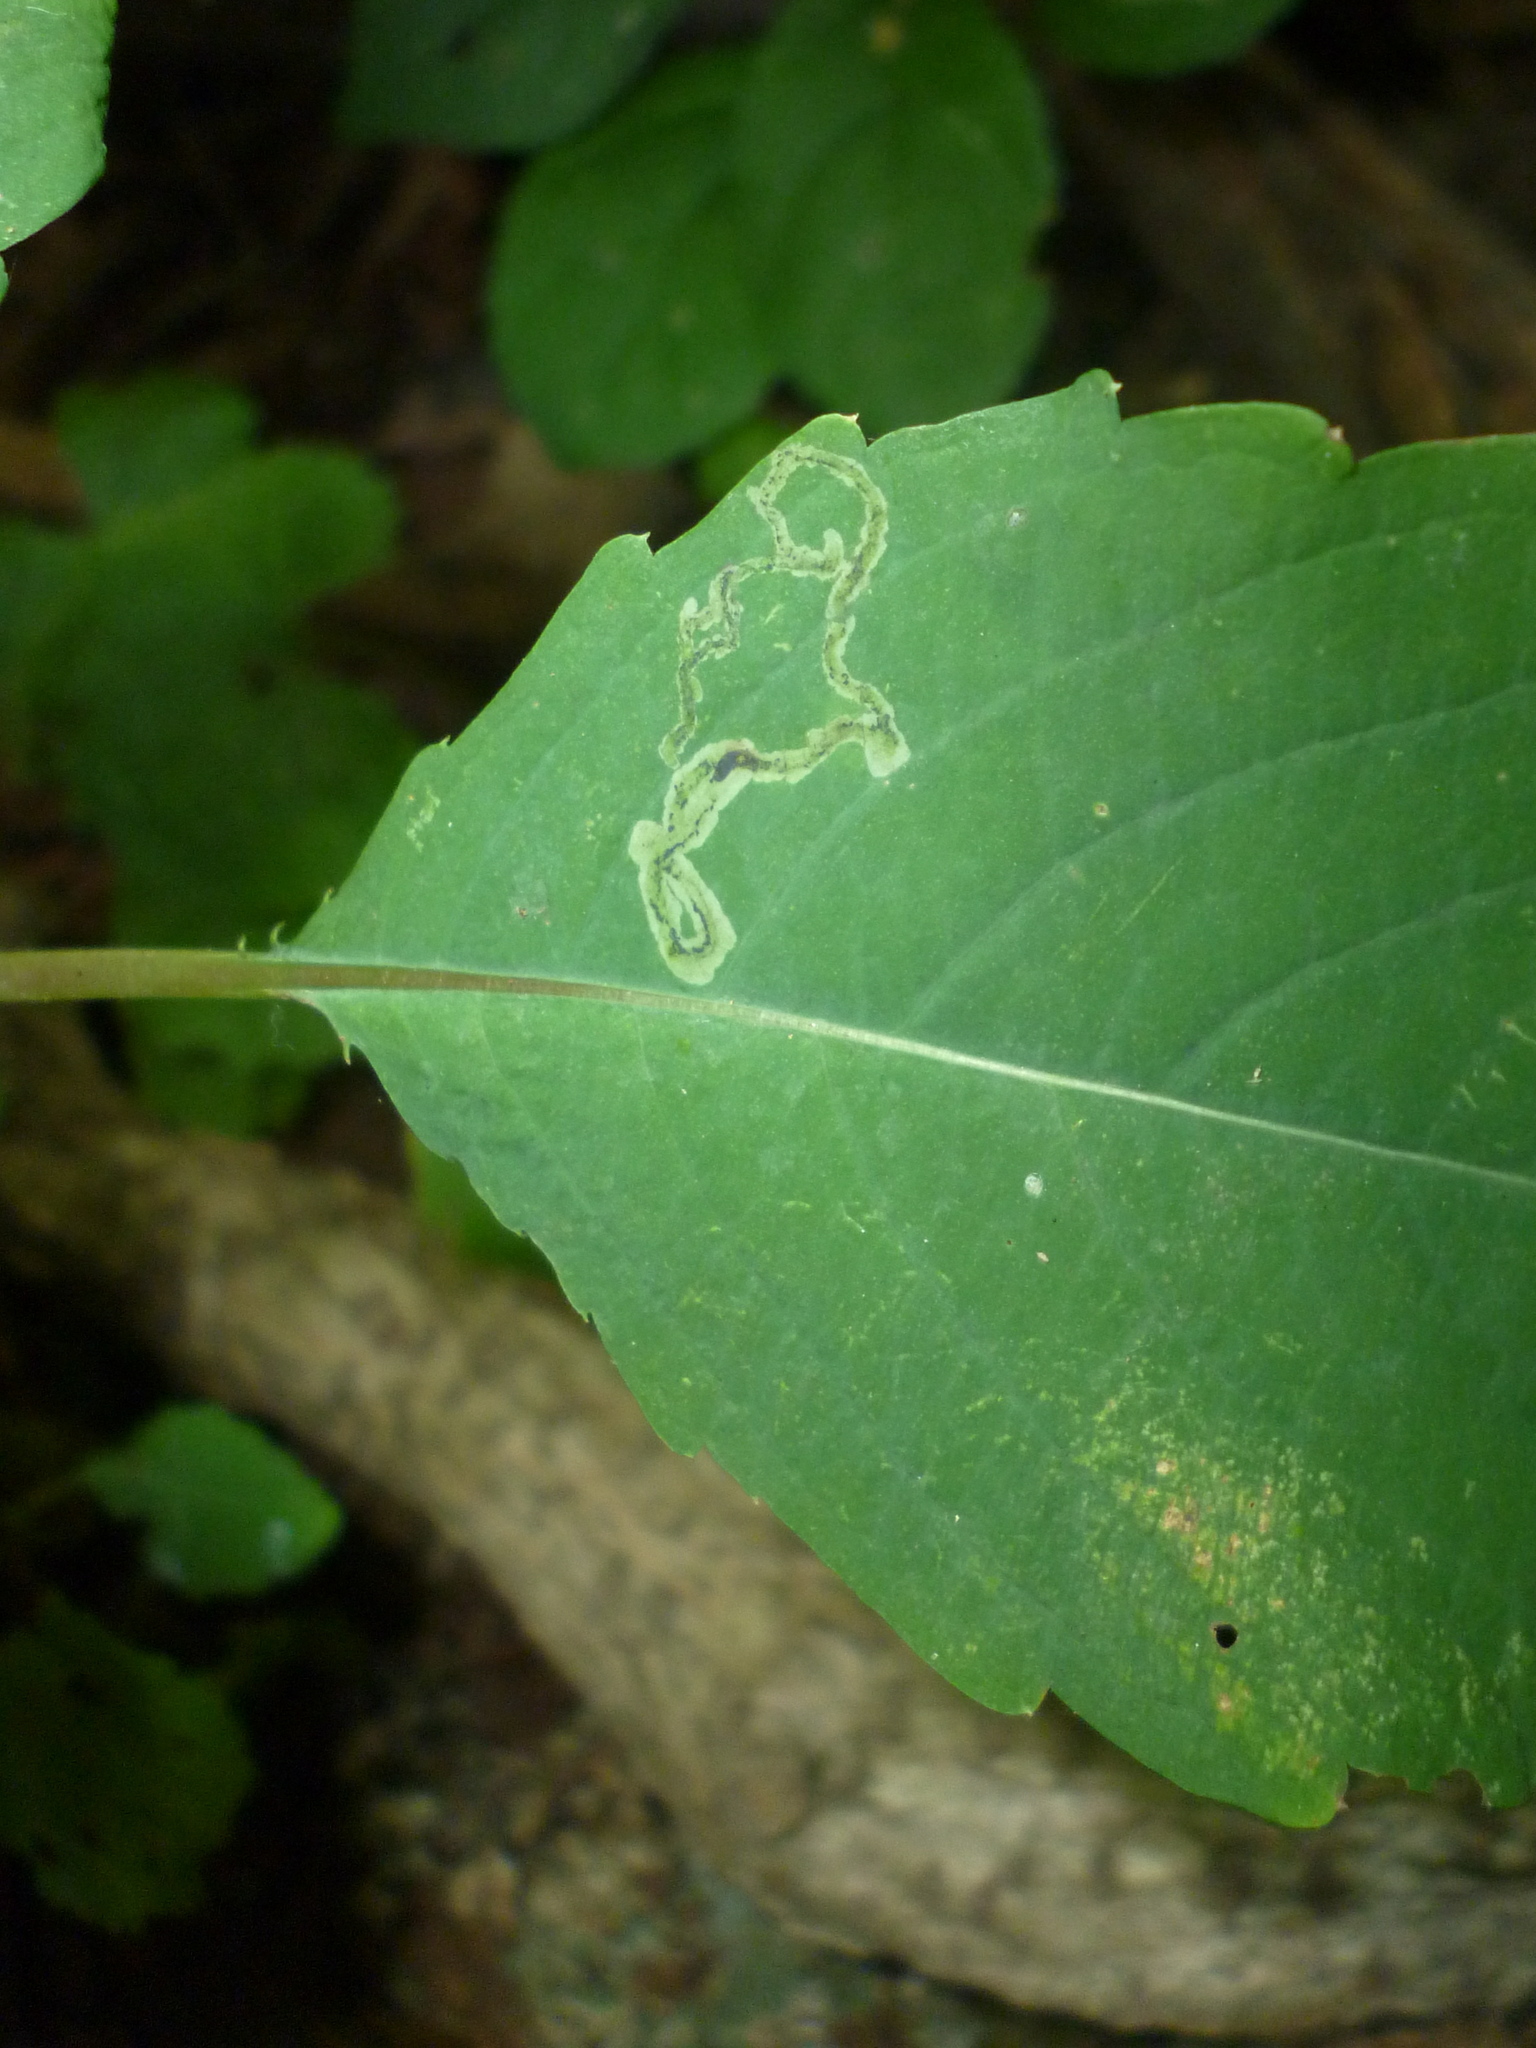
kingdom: Animalia
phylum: Arthropoda
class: Insecta
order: Diptera
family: Agromyzidae
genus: Phytoliriomyza
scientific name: Phytoliriomyza melampyga
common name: Jewelweed leaf-miner fly
